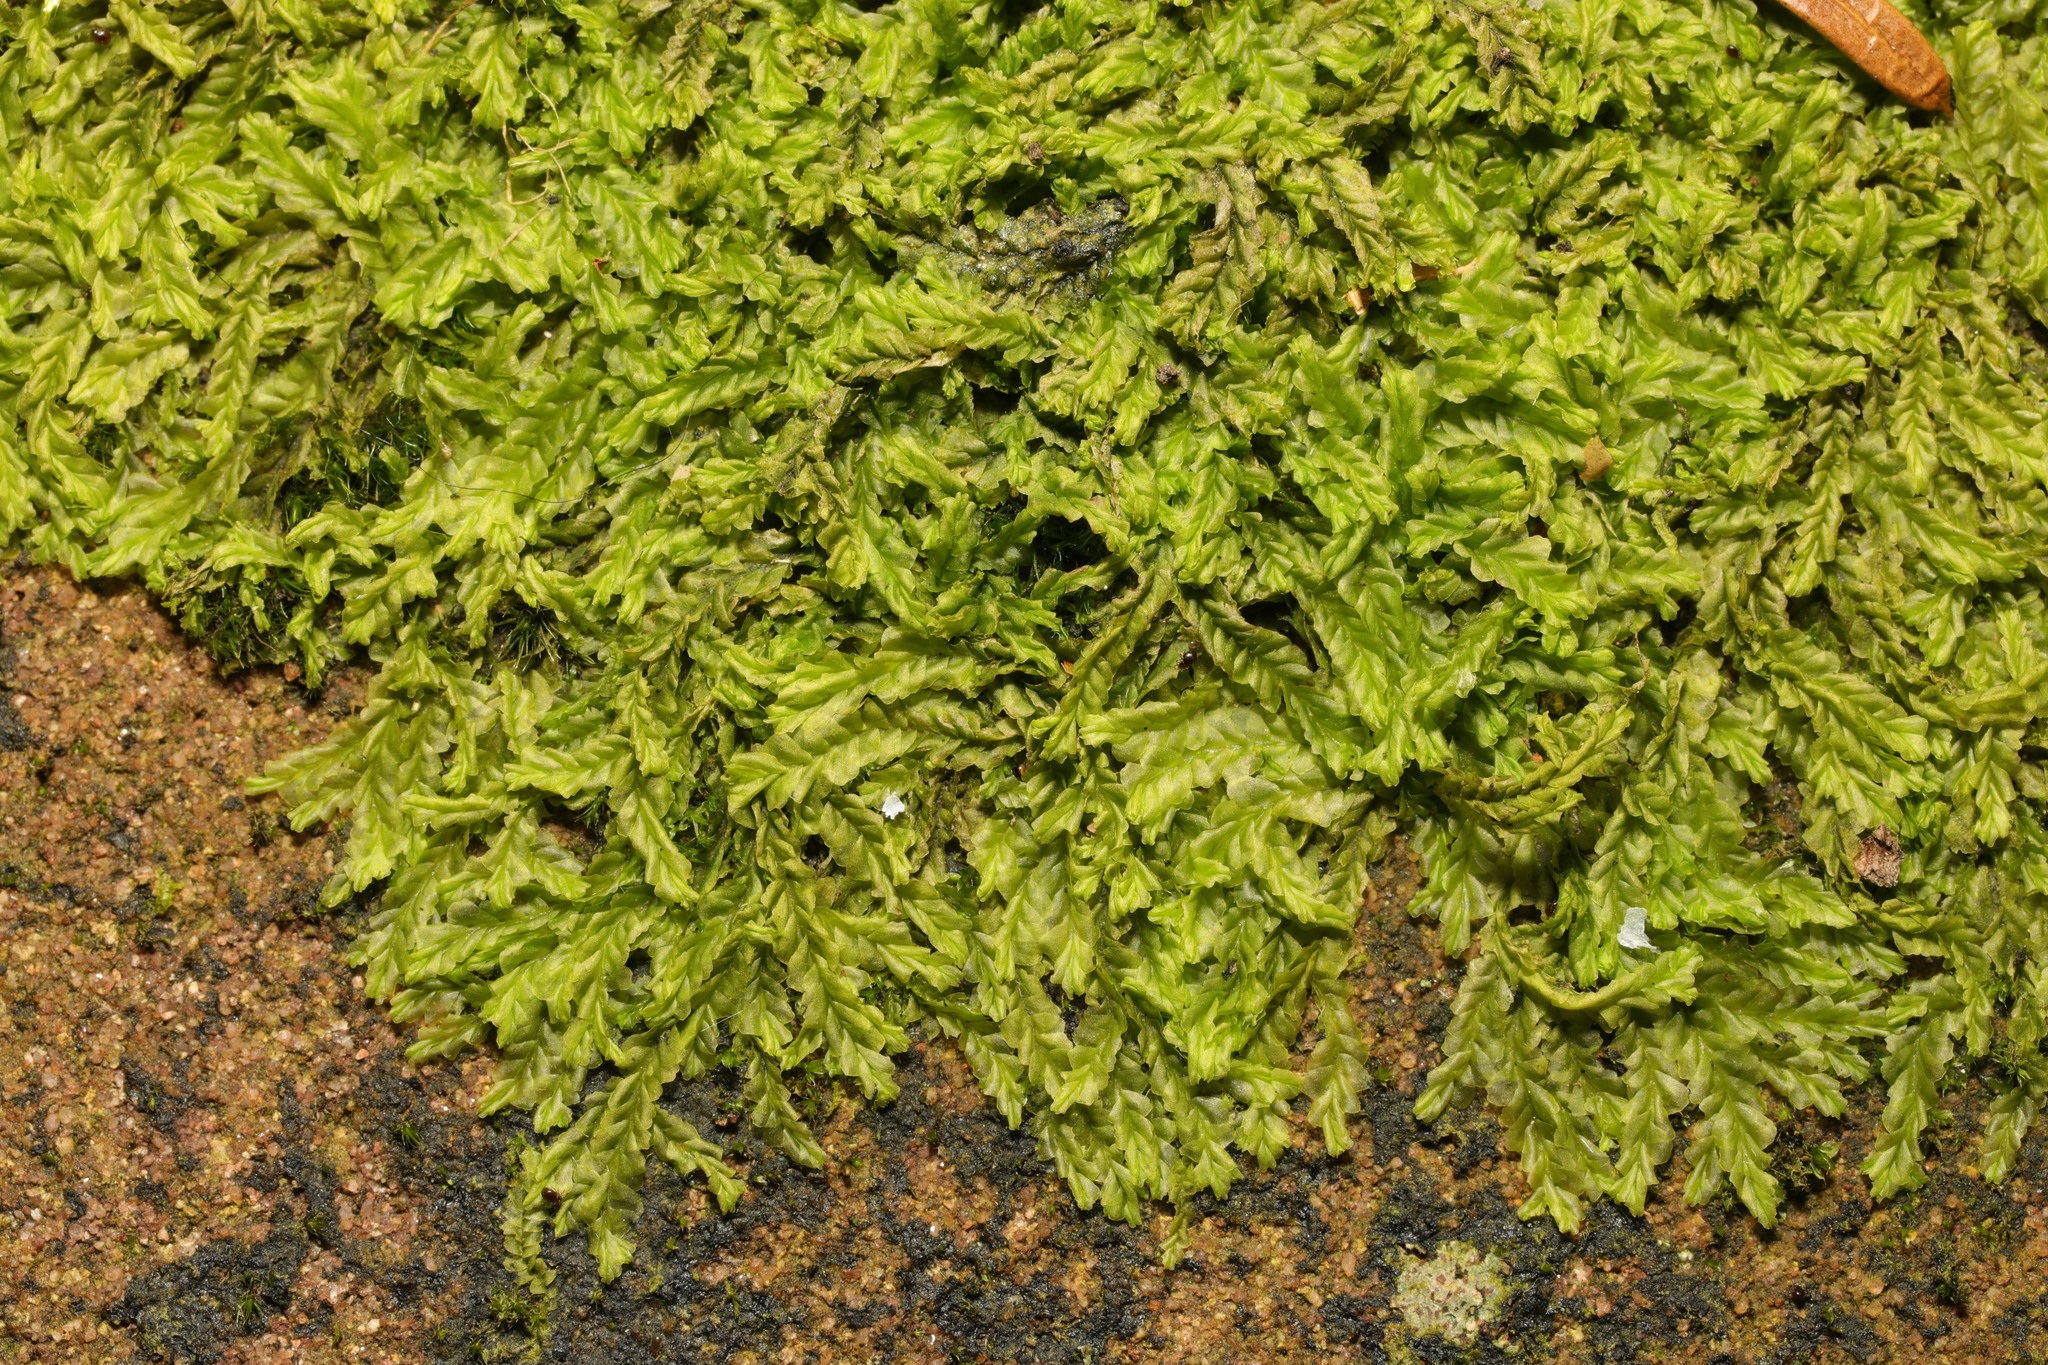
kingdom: Plantae
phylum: Marchantiophyta
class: Jungermanniopsida
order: Jungermanniales
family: Lophocoleaceae
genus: Lophocolea
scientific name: Lophocolea semiteres
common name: Southern crestwort
